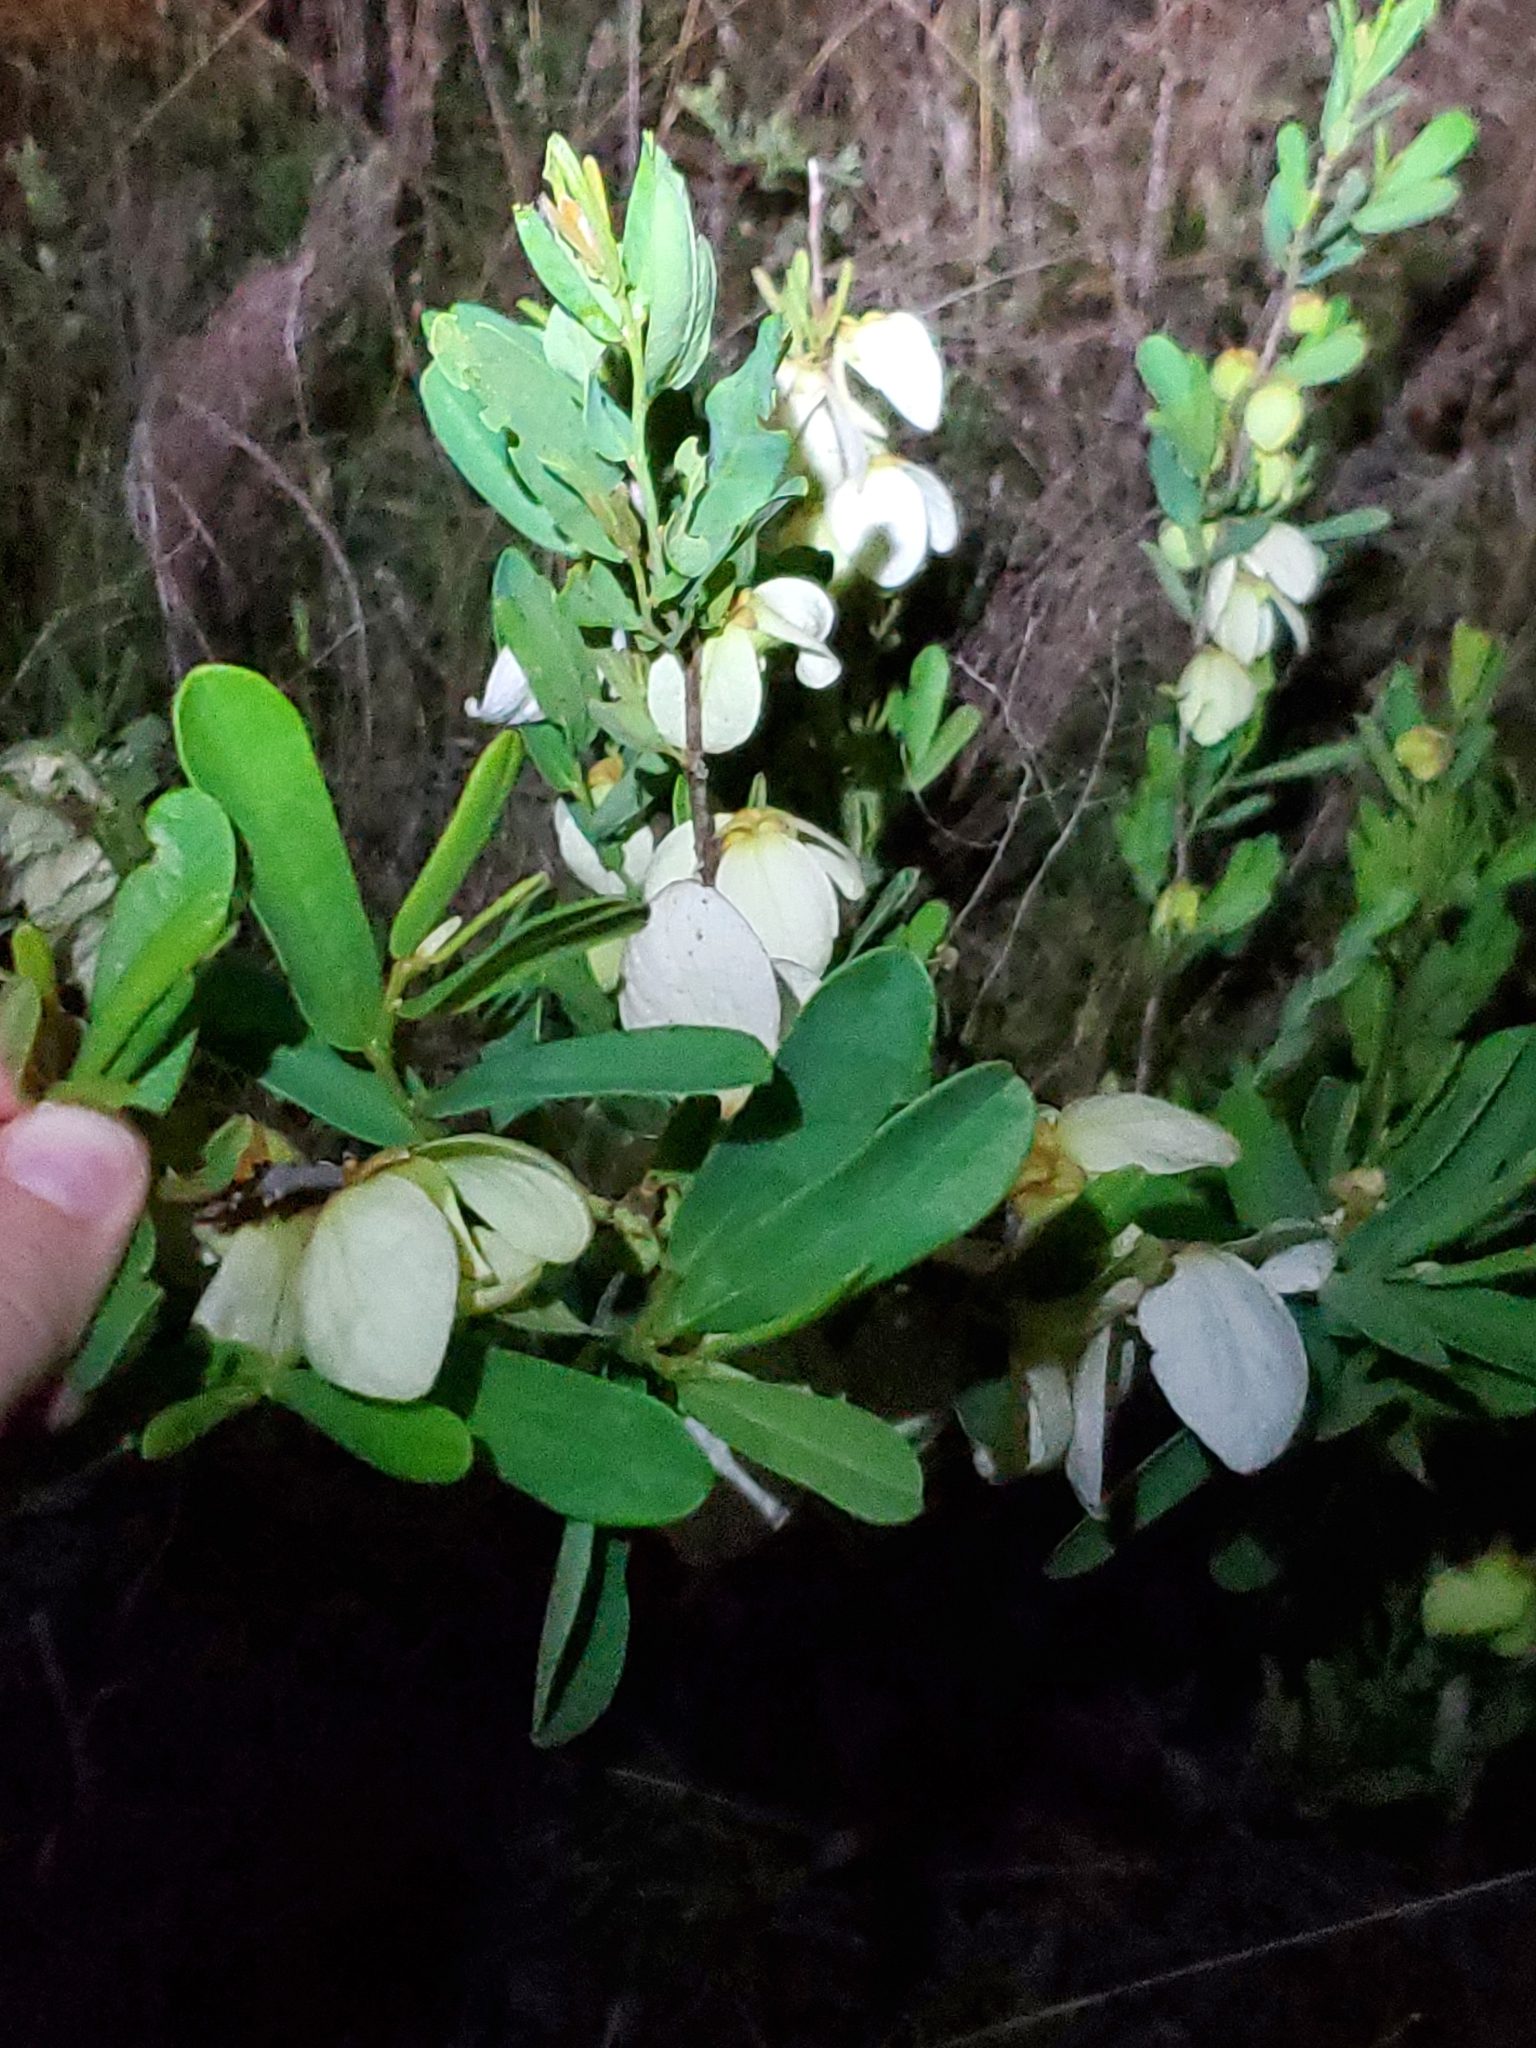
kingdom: Plantae
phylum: Tracheophyta
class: Magnoliopsida
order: Magnoliales
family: Annonaceae
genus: Asimina
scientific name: Asimina reticulata
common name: Flag pawpaw
